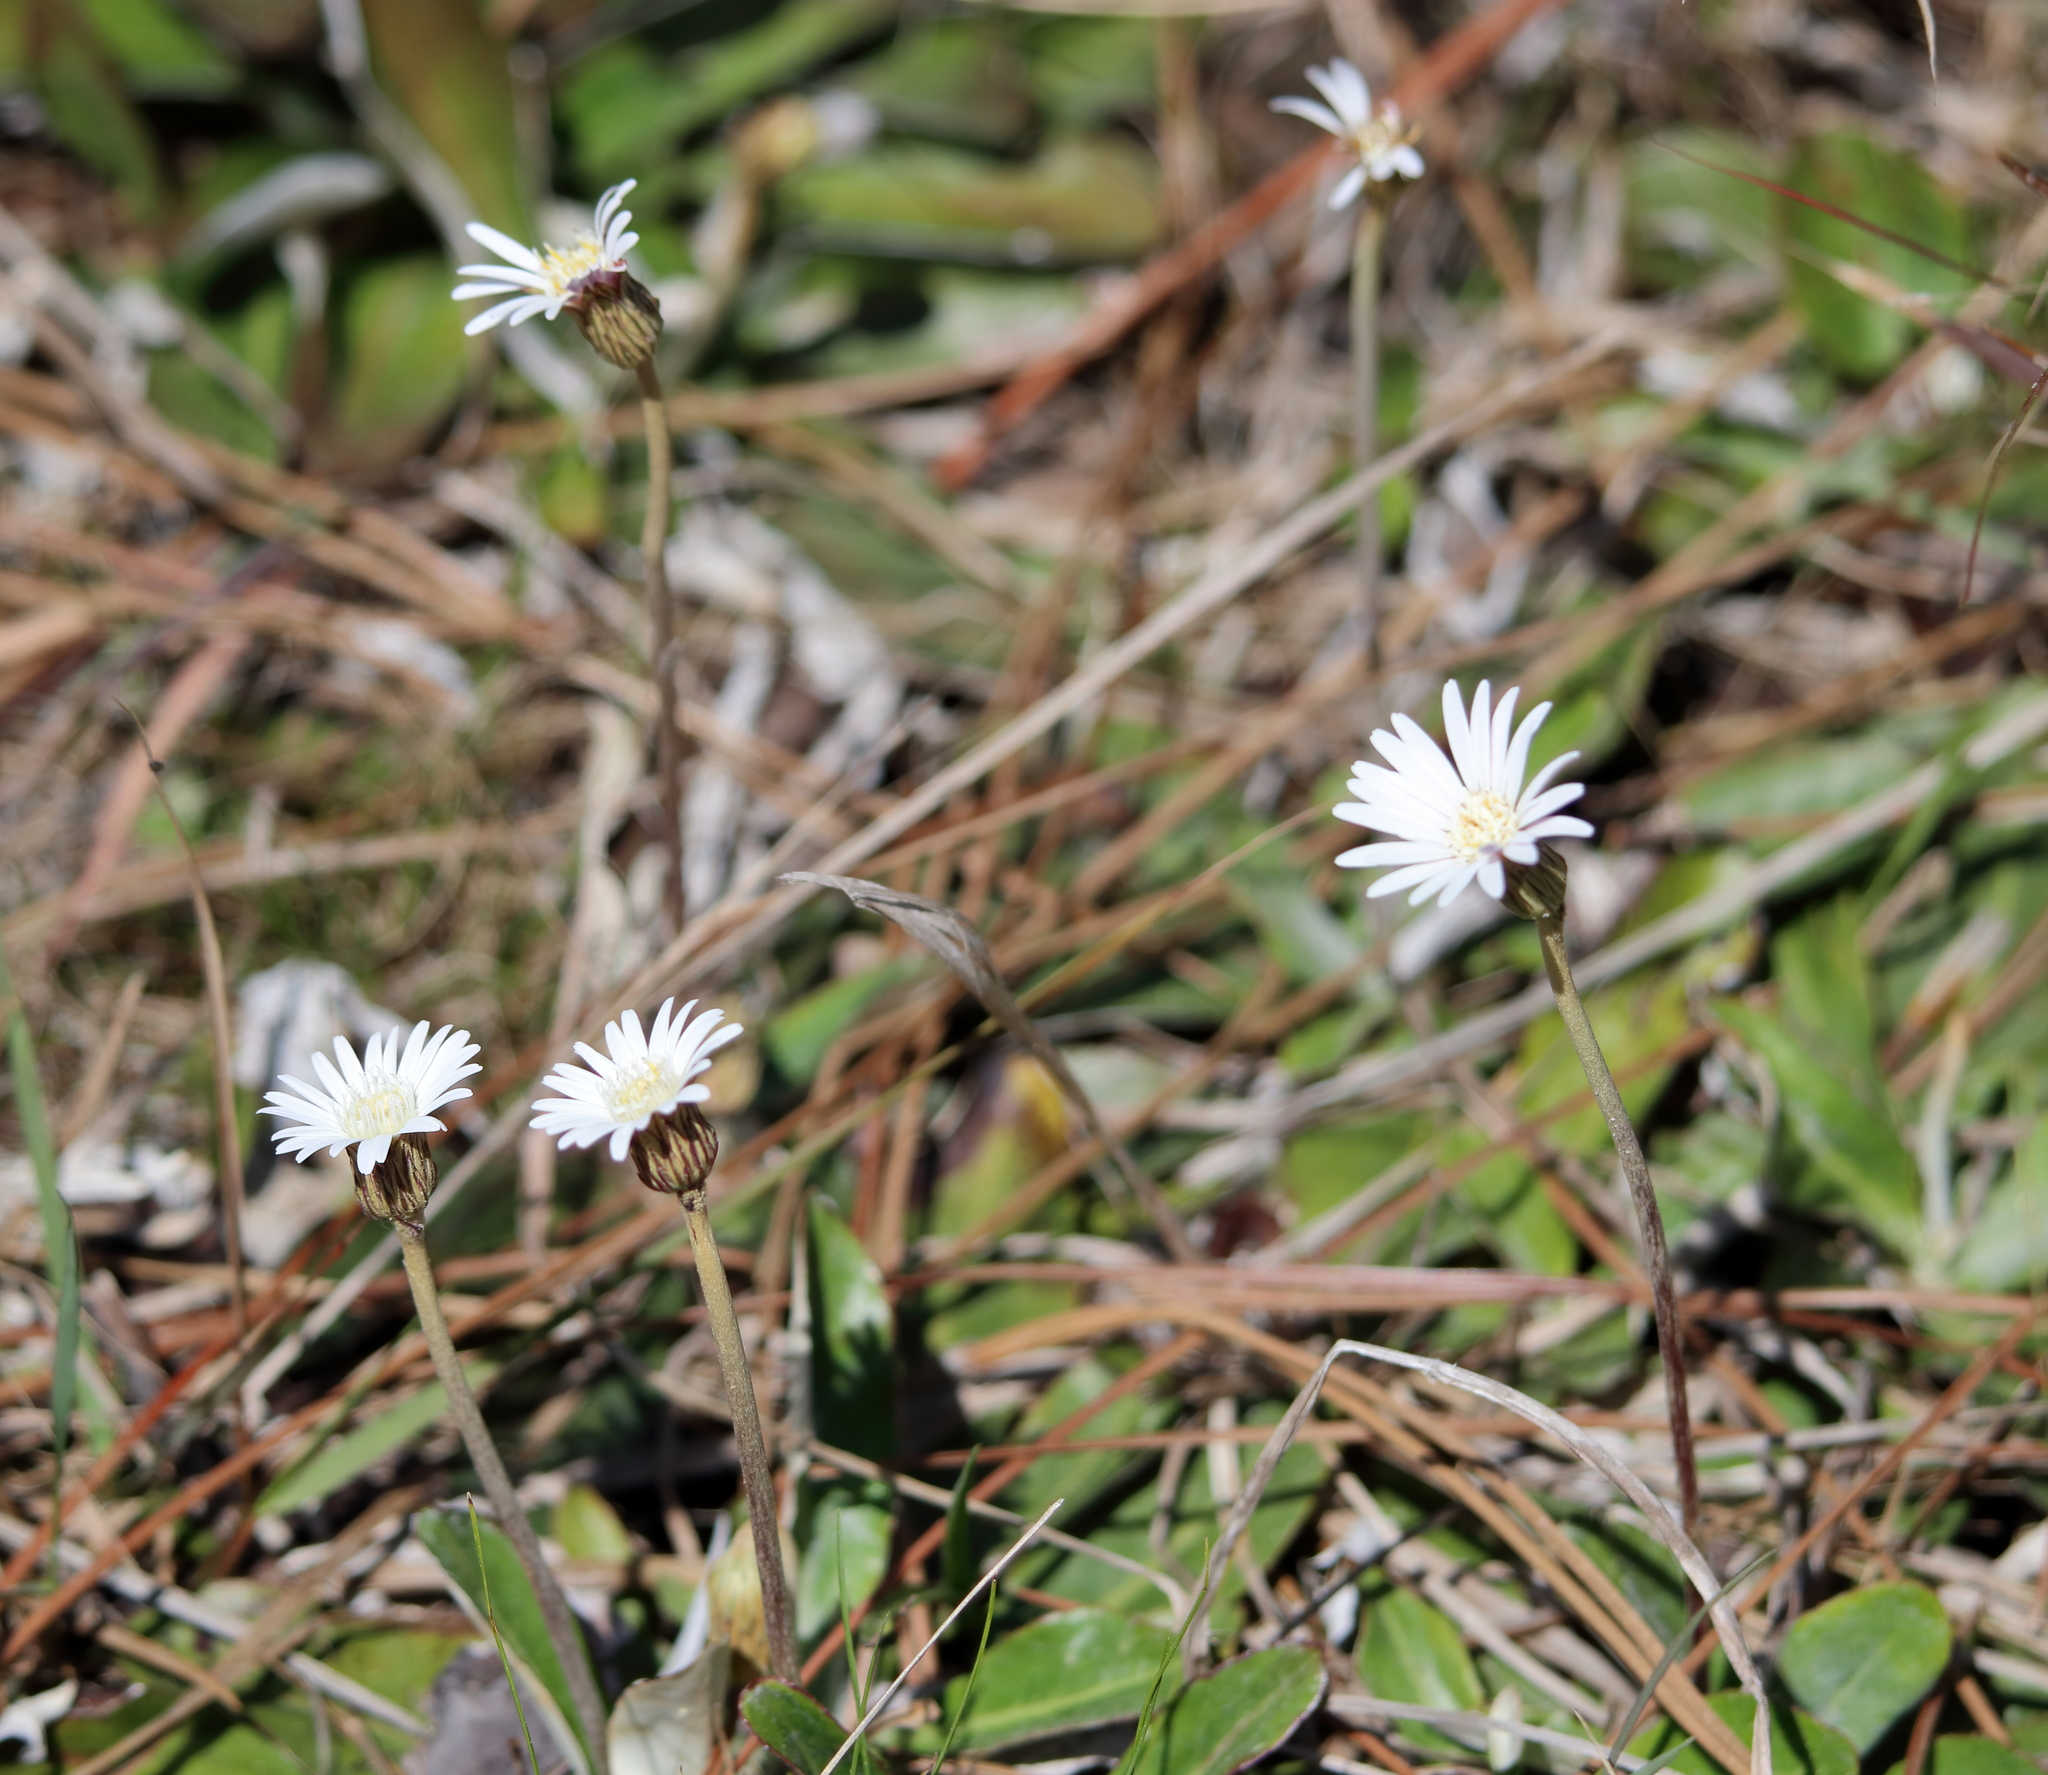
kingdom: Plantae
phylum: Tracheophyta
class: Magnoliopsida
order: Asterales
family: Asteraceae
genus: Chaptalia
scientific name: Chaptalia tomentosa
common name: Woolly sunbonnet
